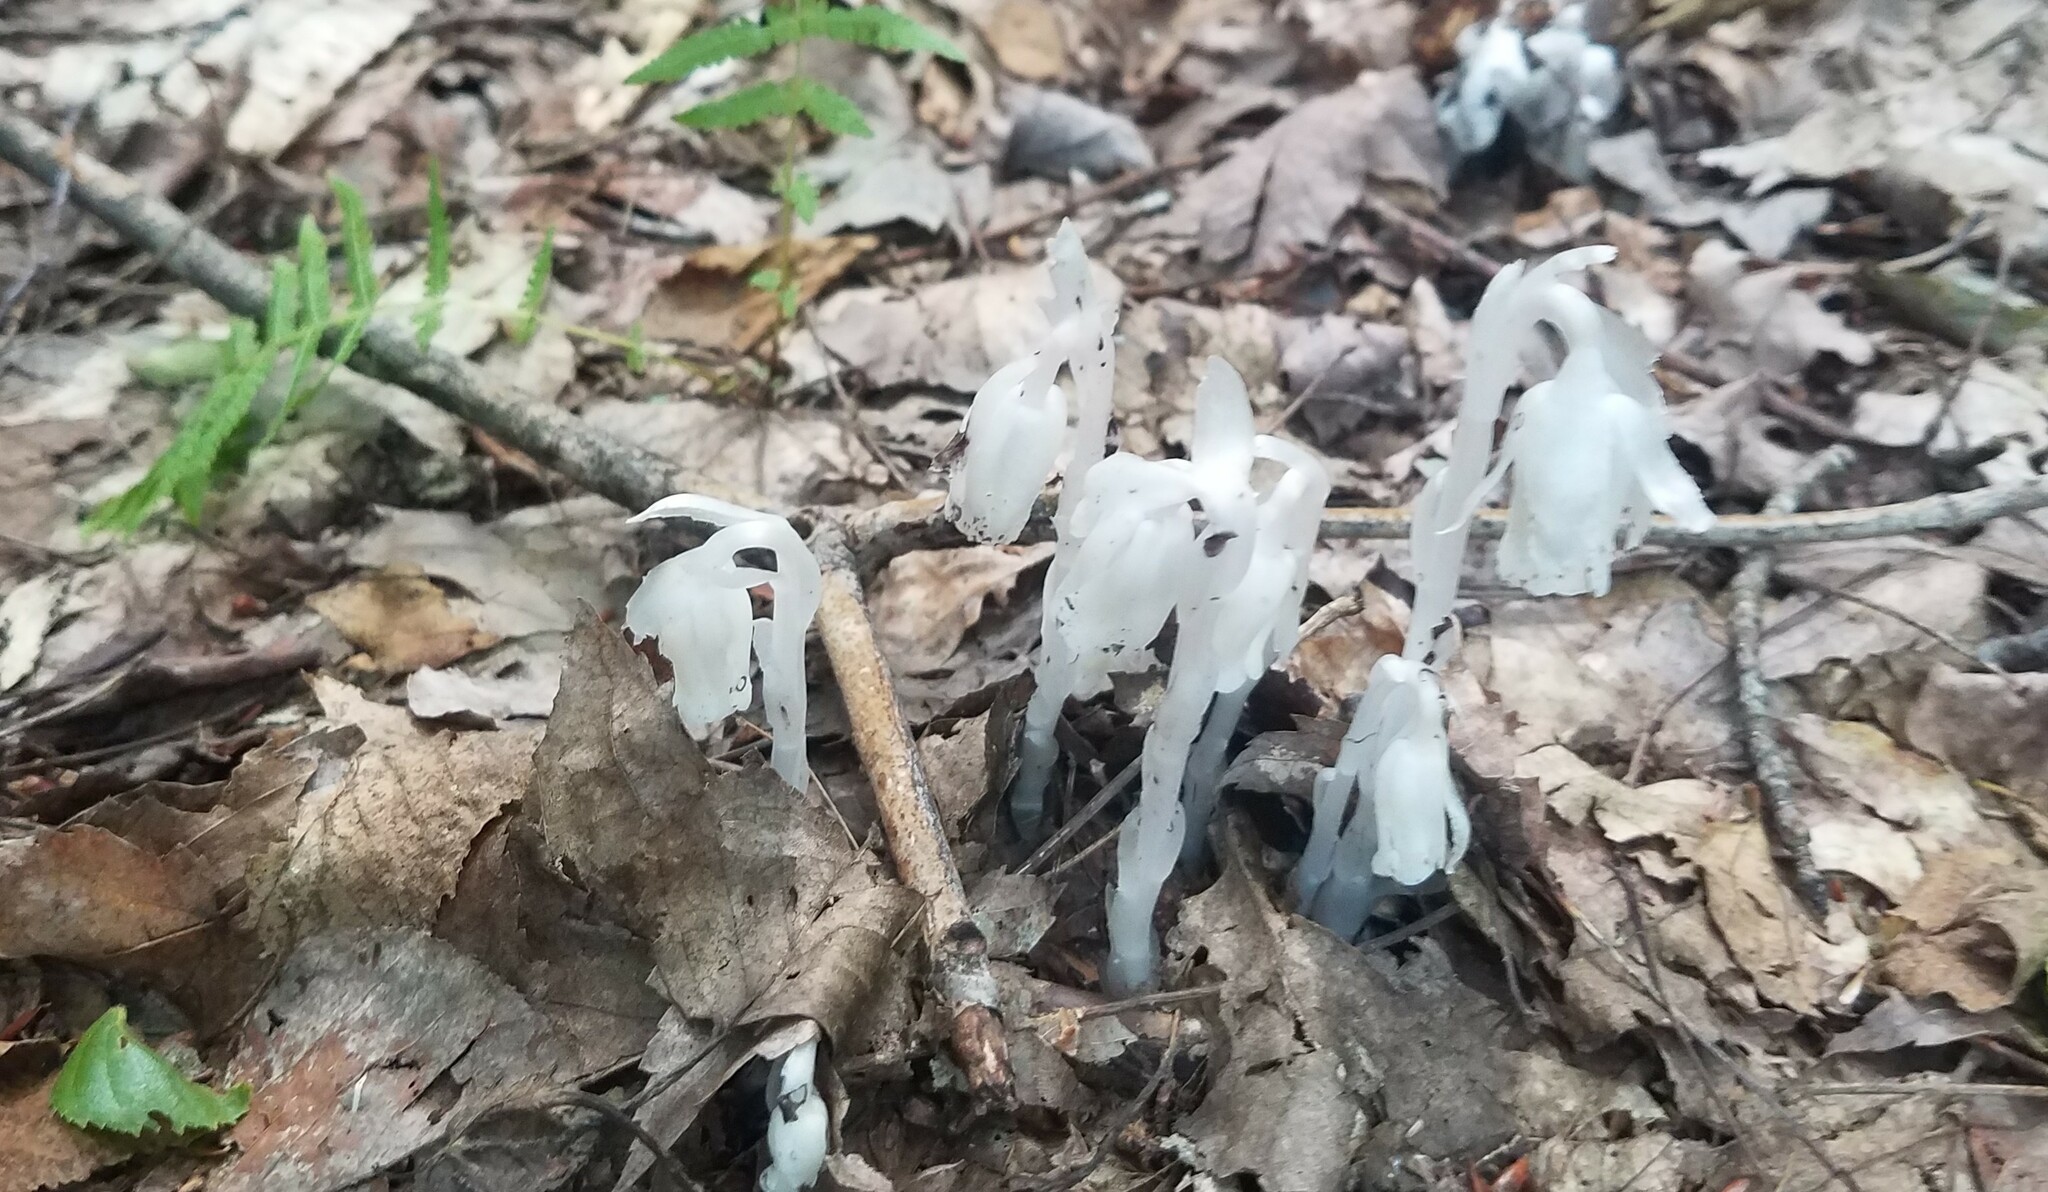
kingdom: Plantae
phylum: Tracheophyta
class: Magnoliopsida
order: Ericales
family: Ericaceae
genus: Monotropa
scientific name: Monotropa uniflora
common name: Convulsion root
